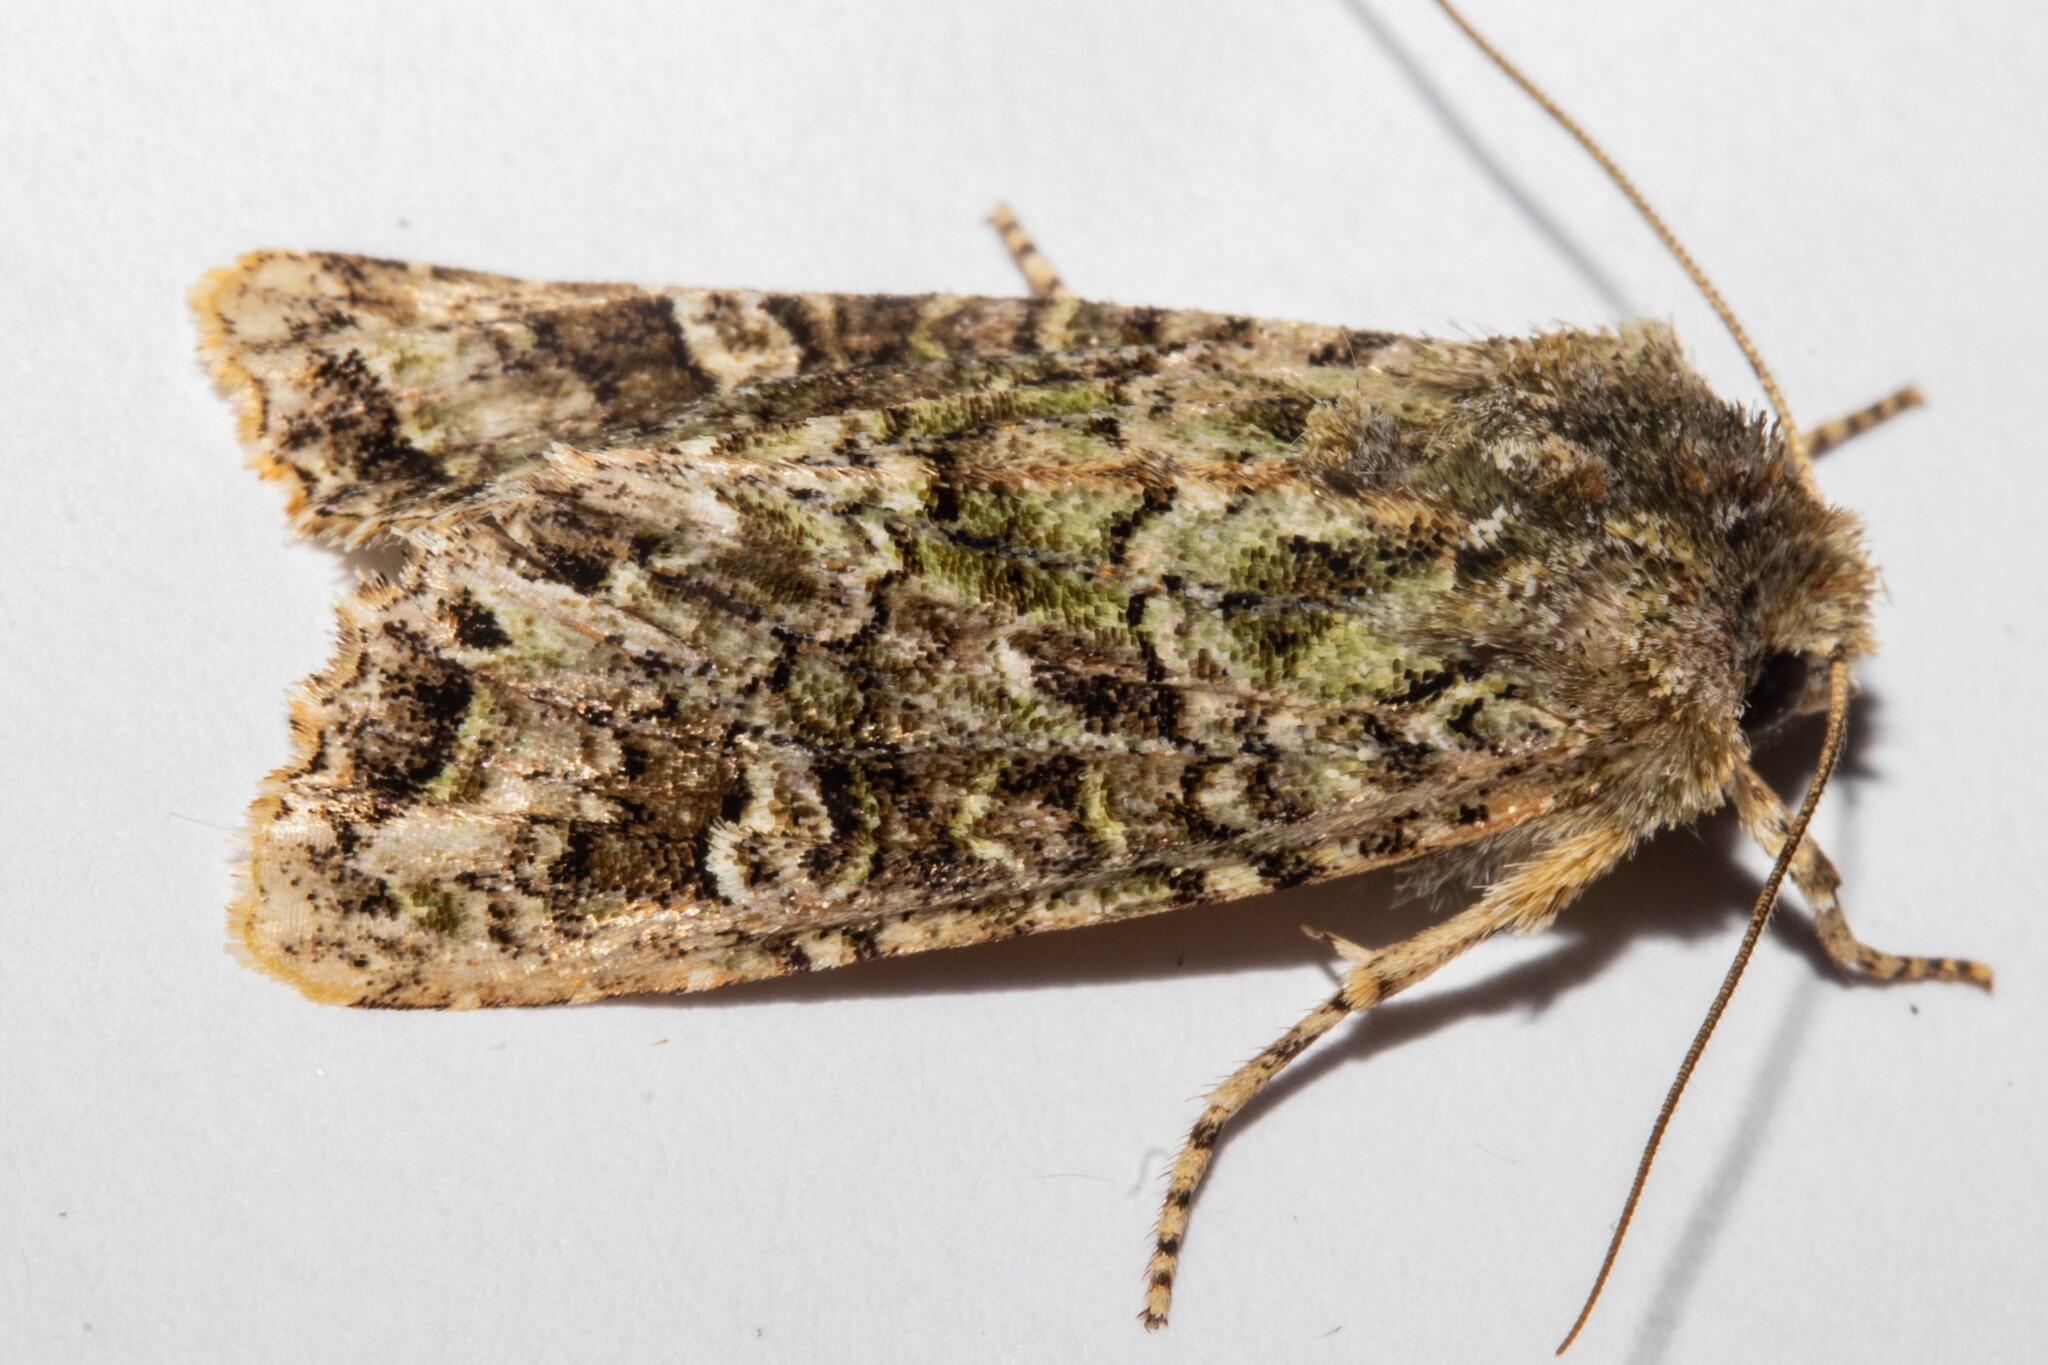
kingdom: Animalia
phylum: Arthropoda
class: Insecta
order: Lepidoptera
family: Noctuidae
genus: Ichneutica
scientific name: Ichneutica
